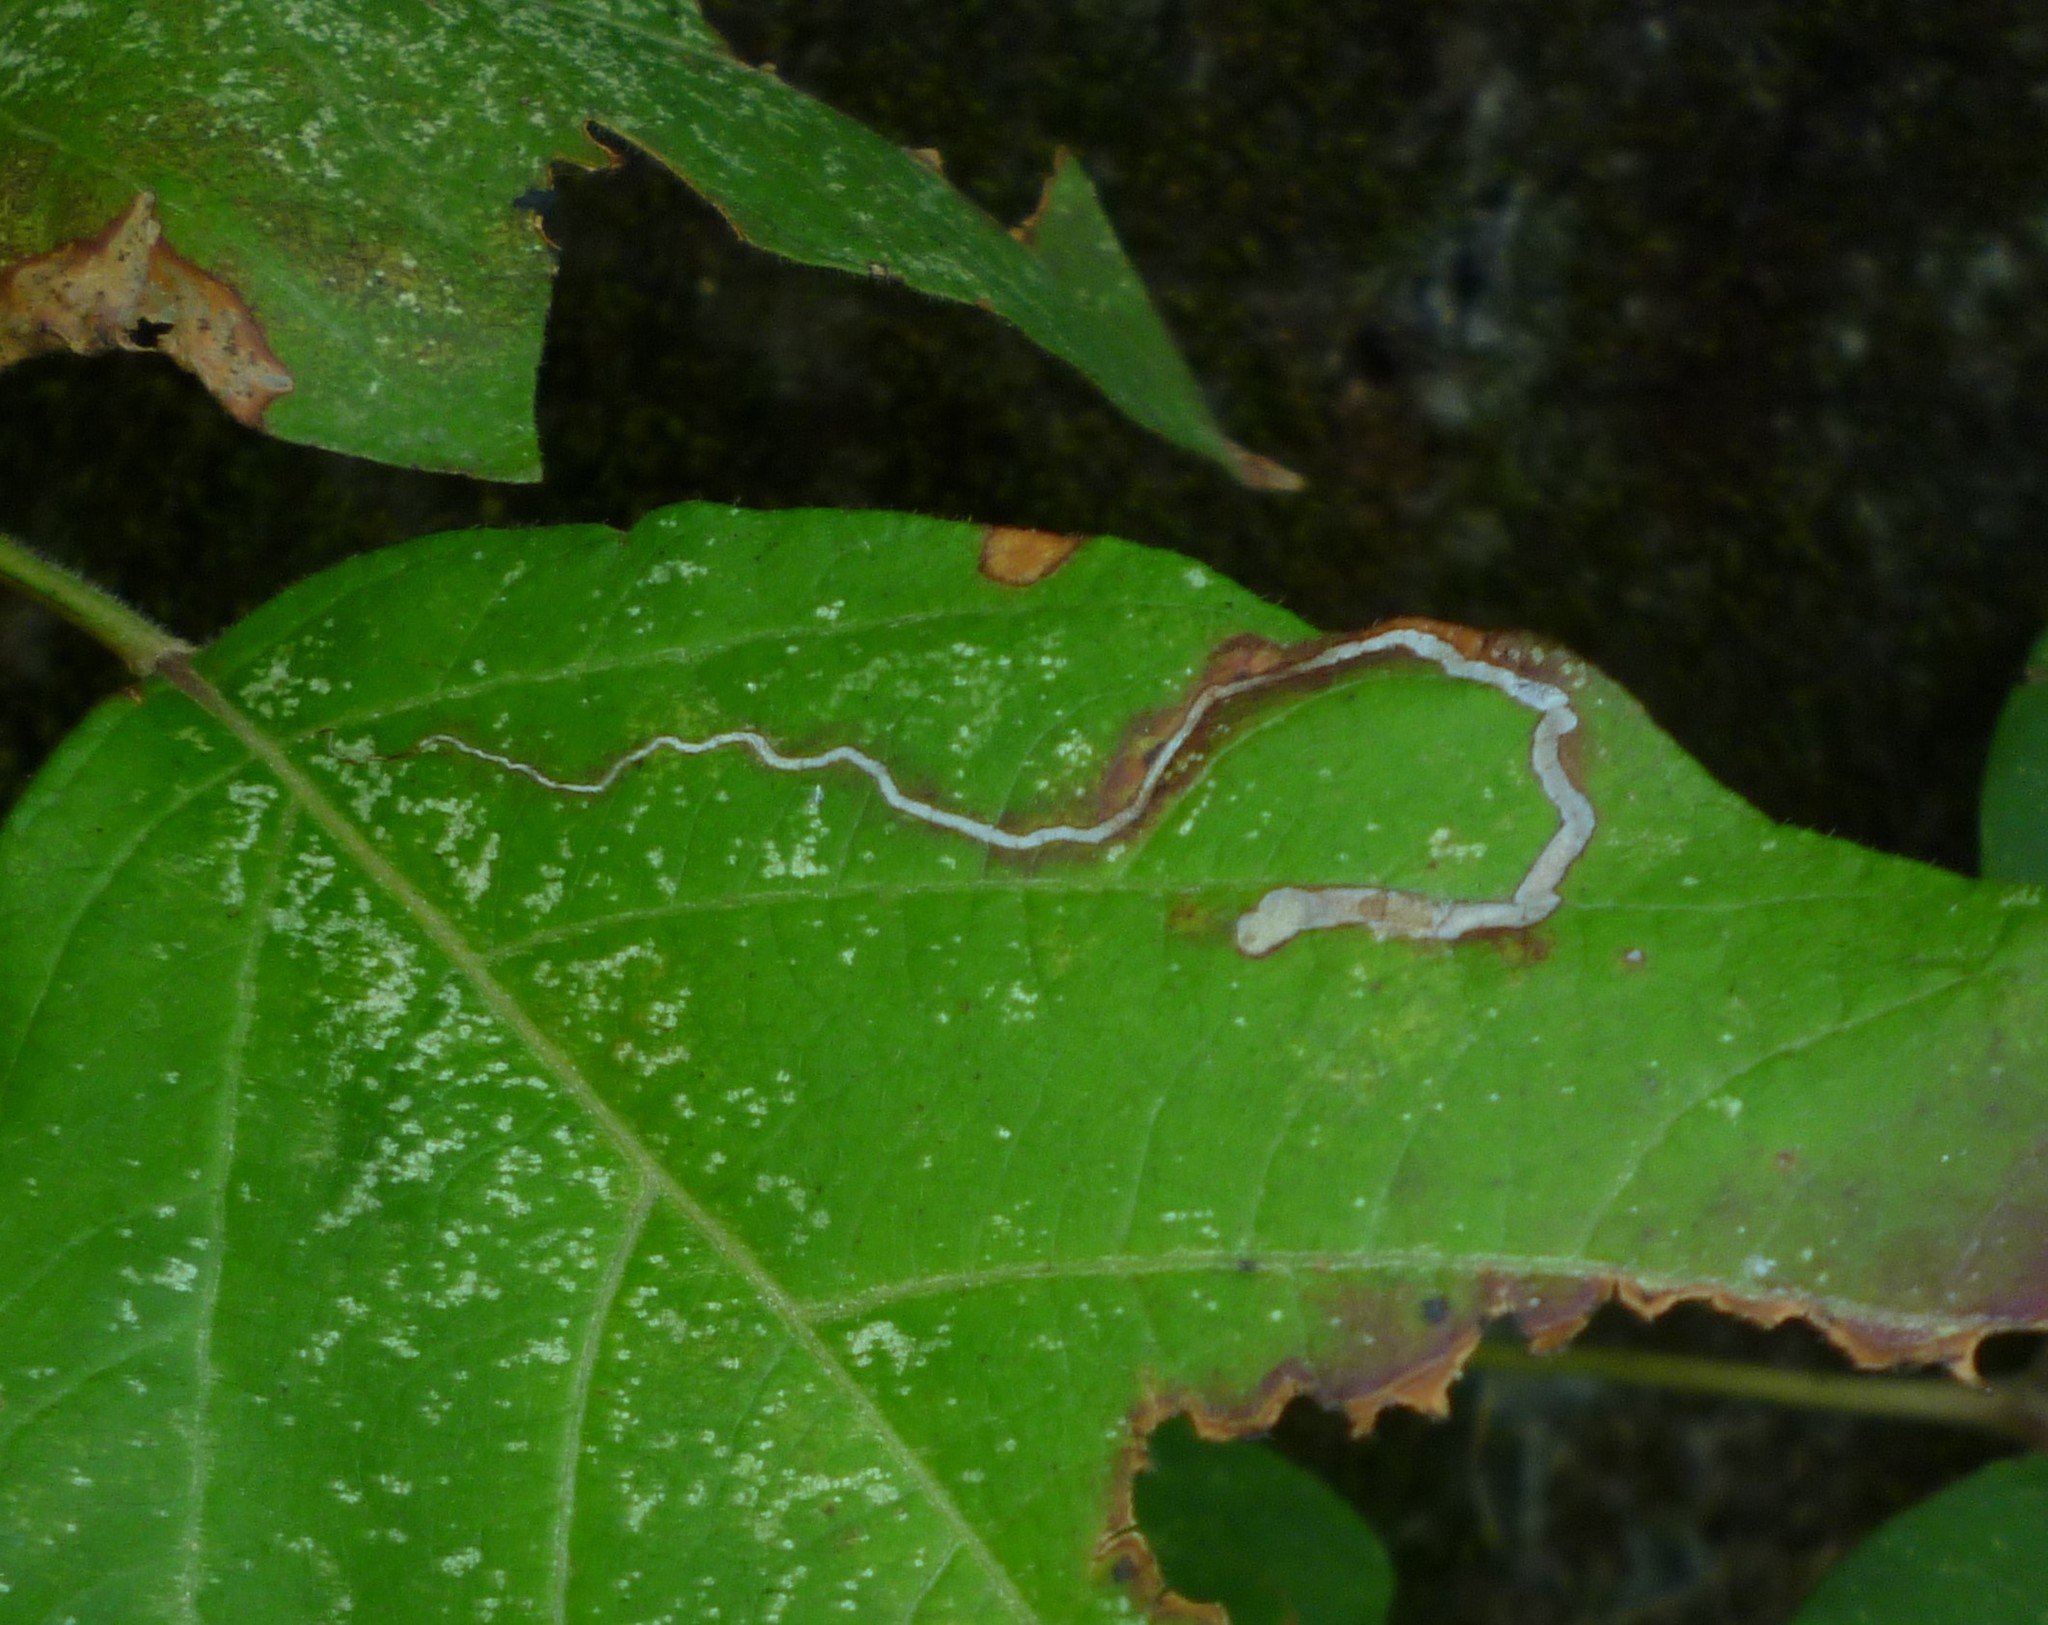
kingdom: Animalia
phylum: Arthropoda
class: Insecta
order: Lepidoptera
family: Nepticulidae
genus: Stigmella
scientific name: Stigmella rhoifoliella
